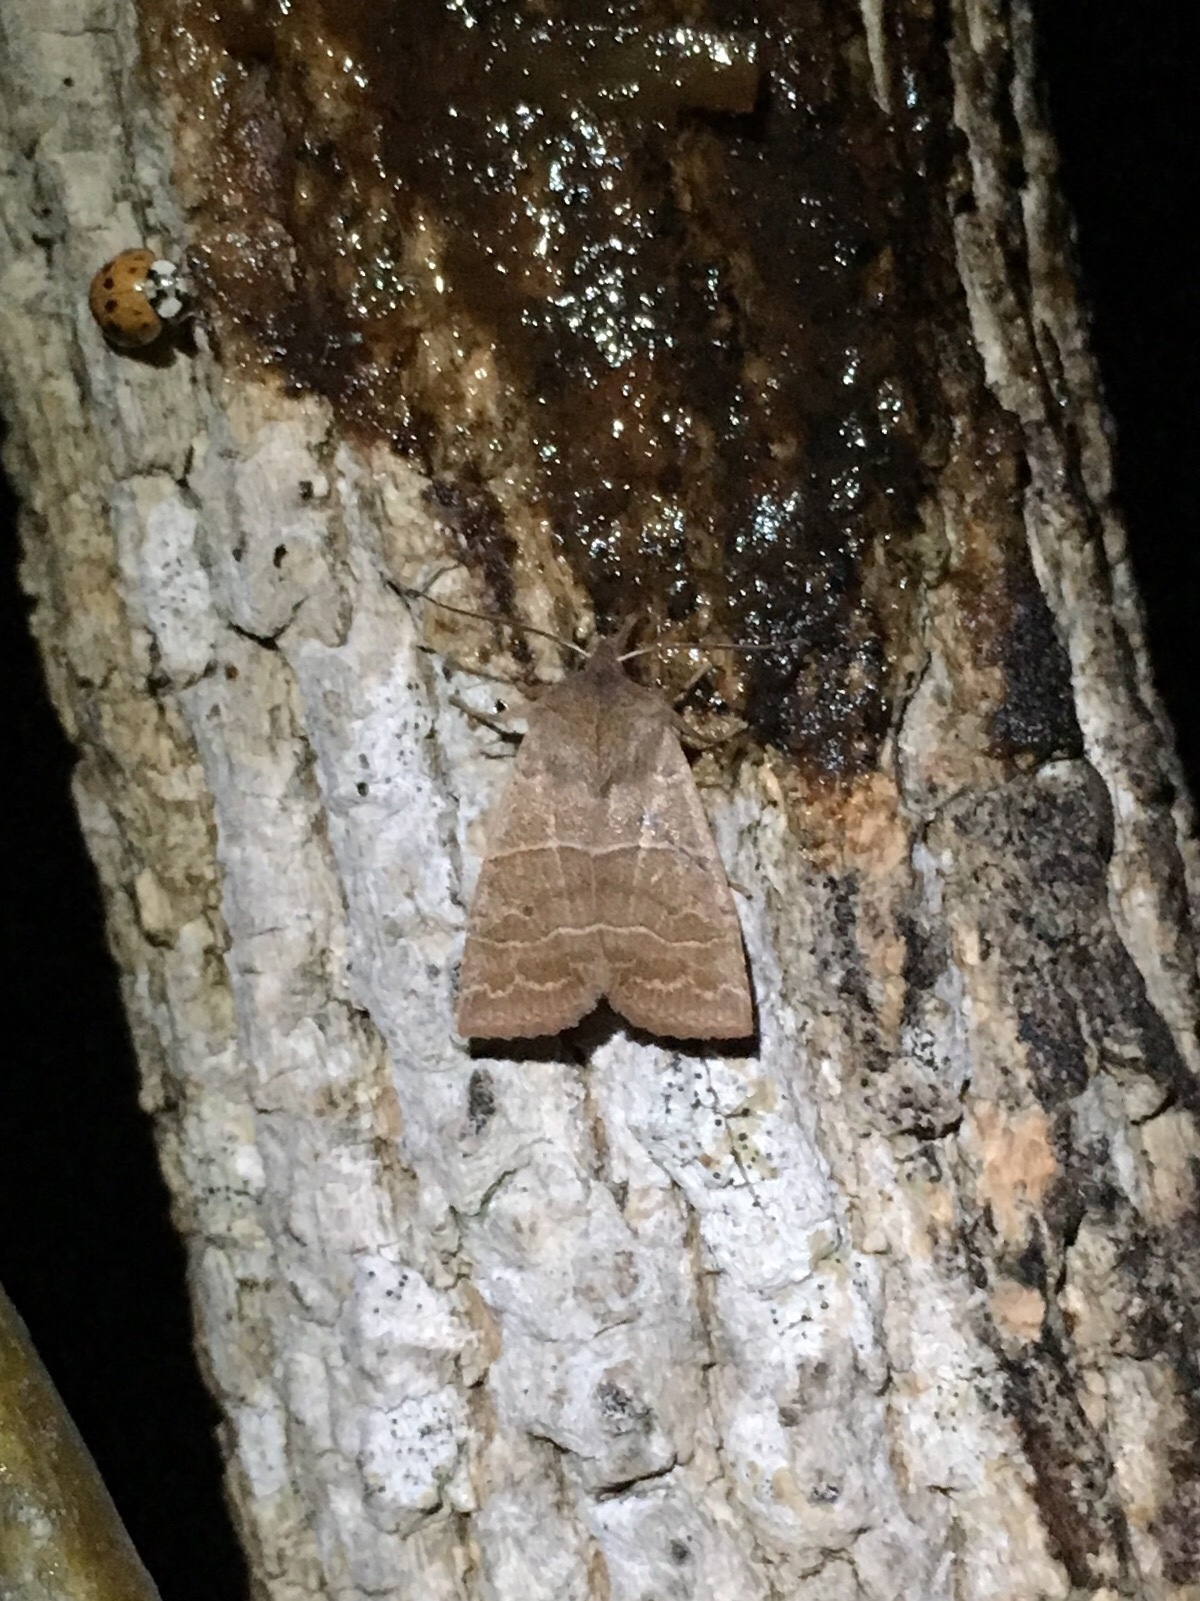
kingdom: Animalia
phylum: Arthropoda
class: Insecta
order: Lepidoptera
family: Noctuidae
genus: Eupsilia
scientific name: Eupsilia morrisoni
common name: Morrison's sallow
